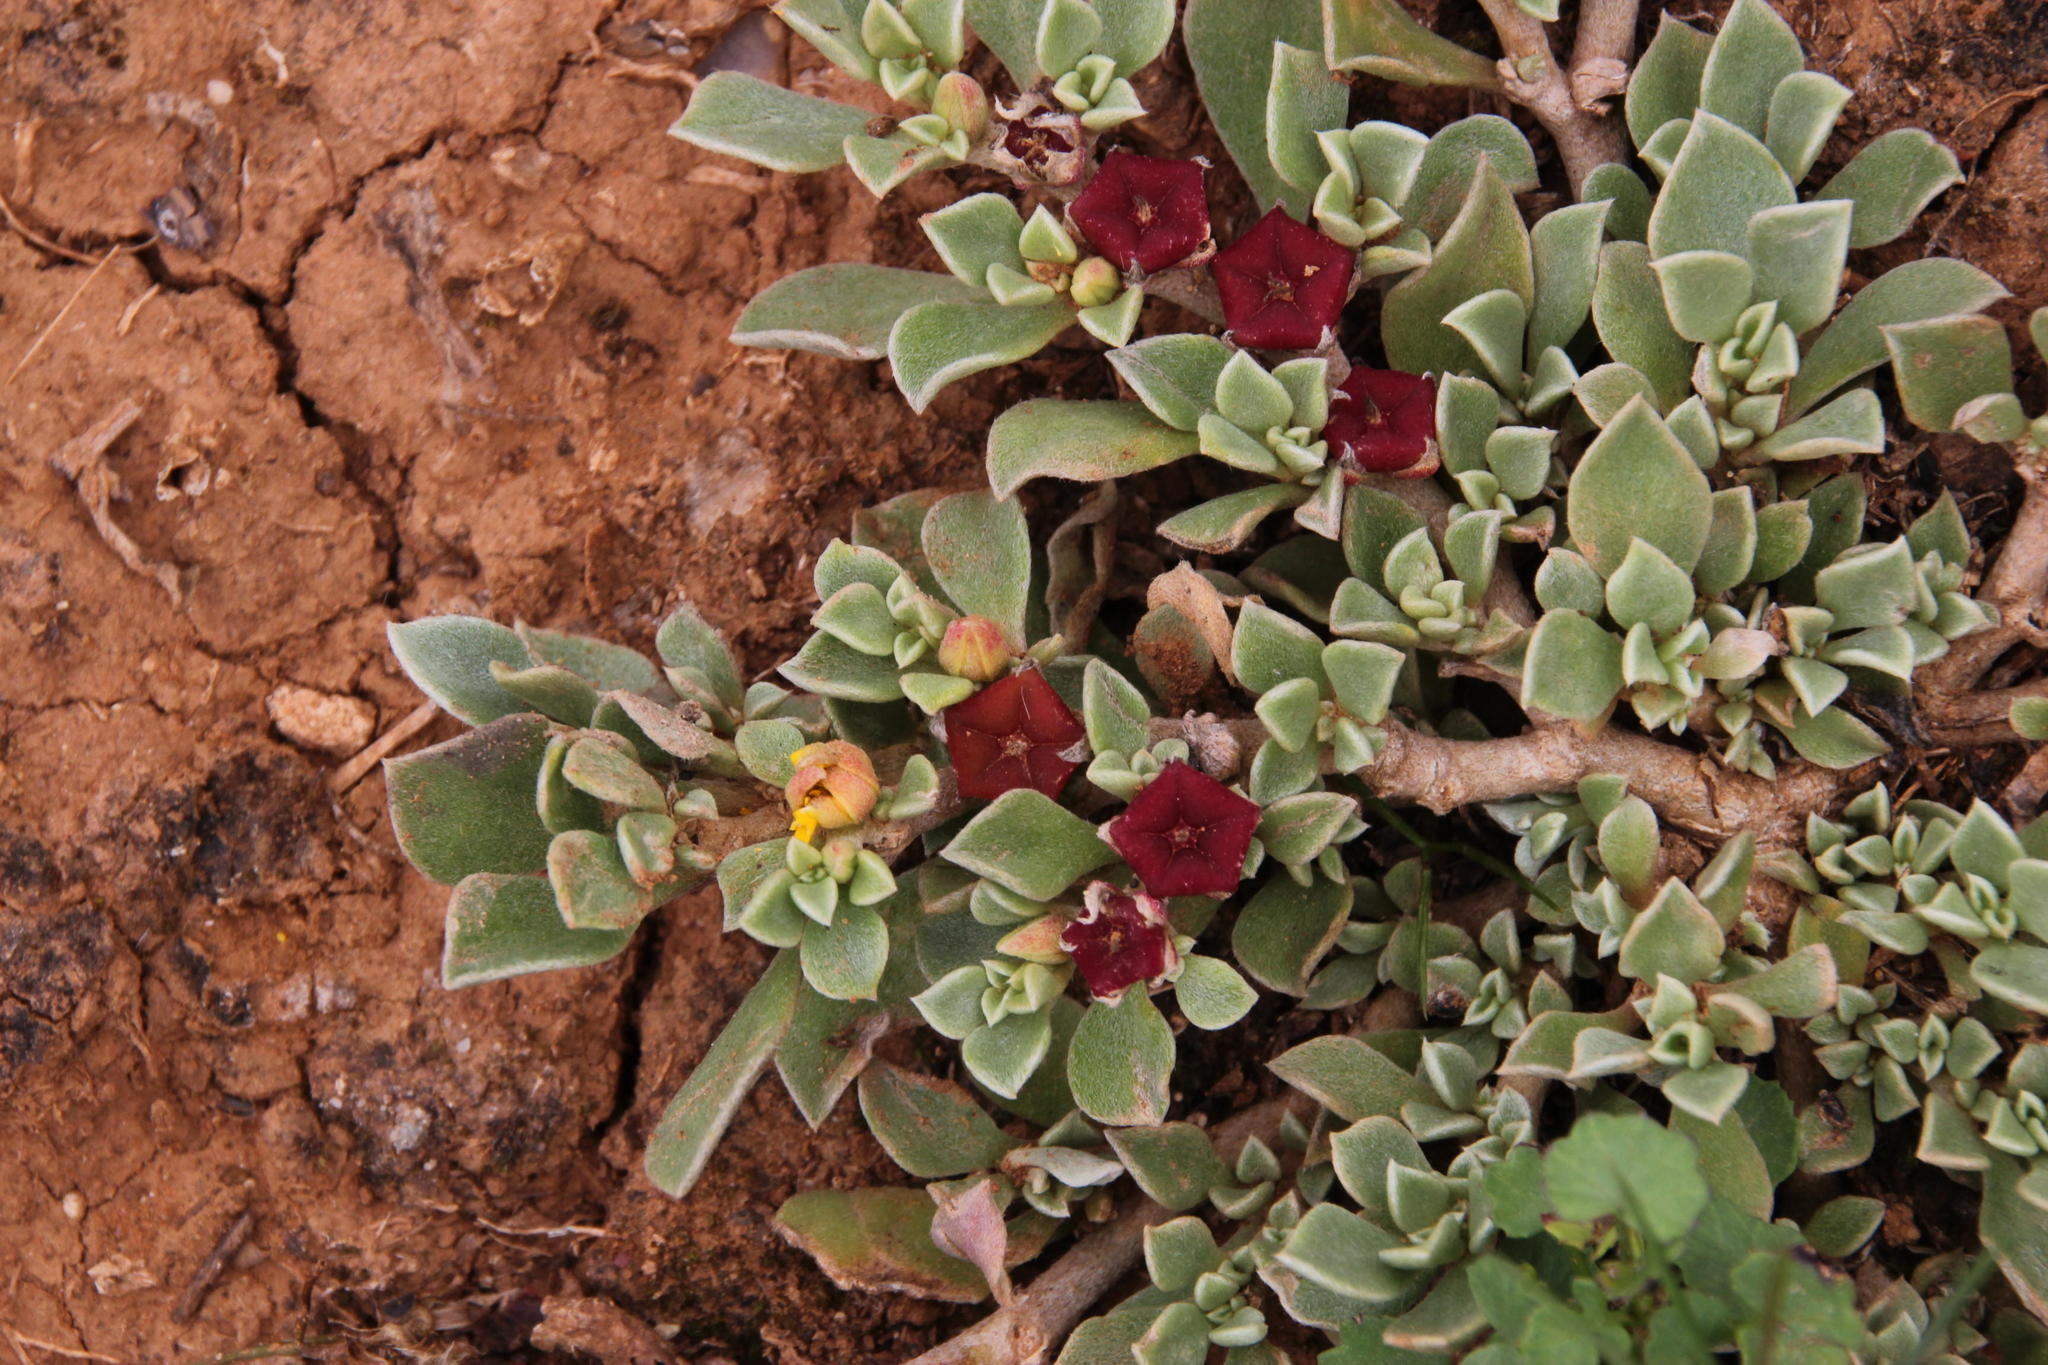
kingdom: Plantae
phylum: Tracheophyta
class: Magnoliopsida
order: Caryophyllales
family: Aizoaceae
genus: Aizoon
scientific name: Aizoon rigidum
